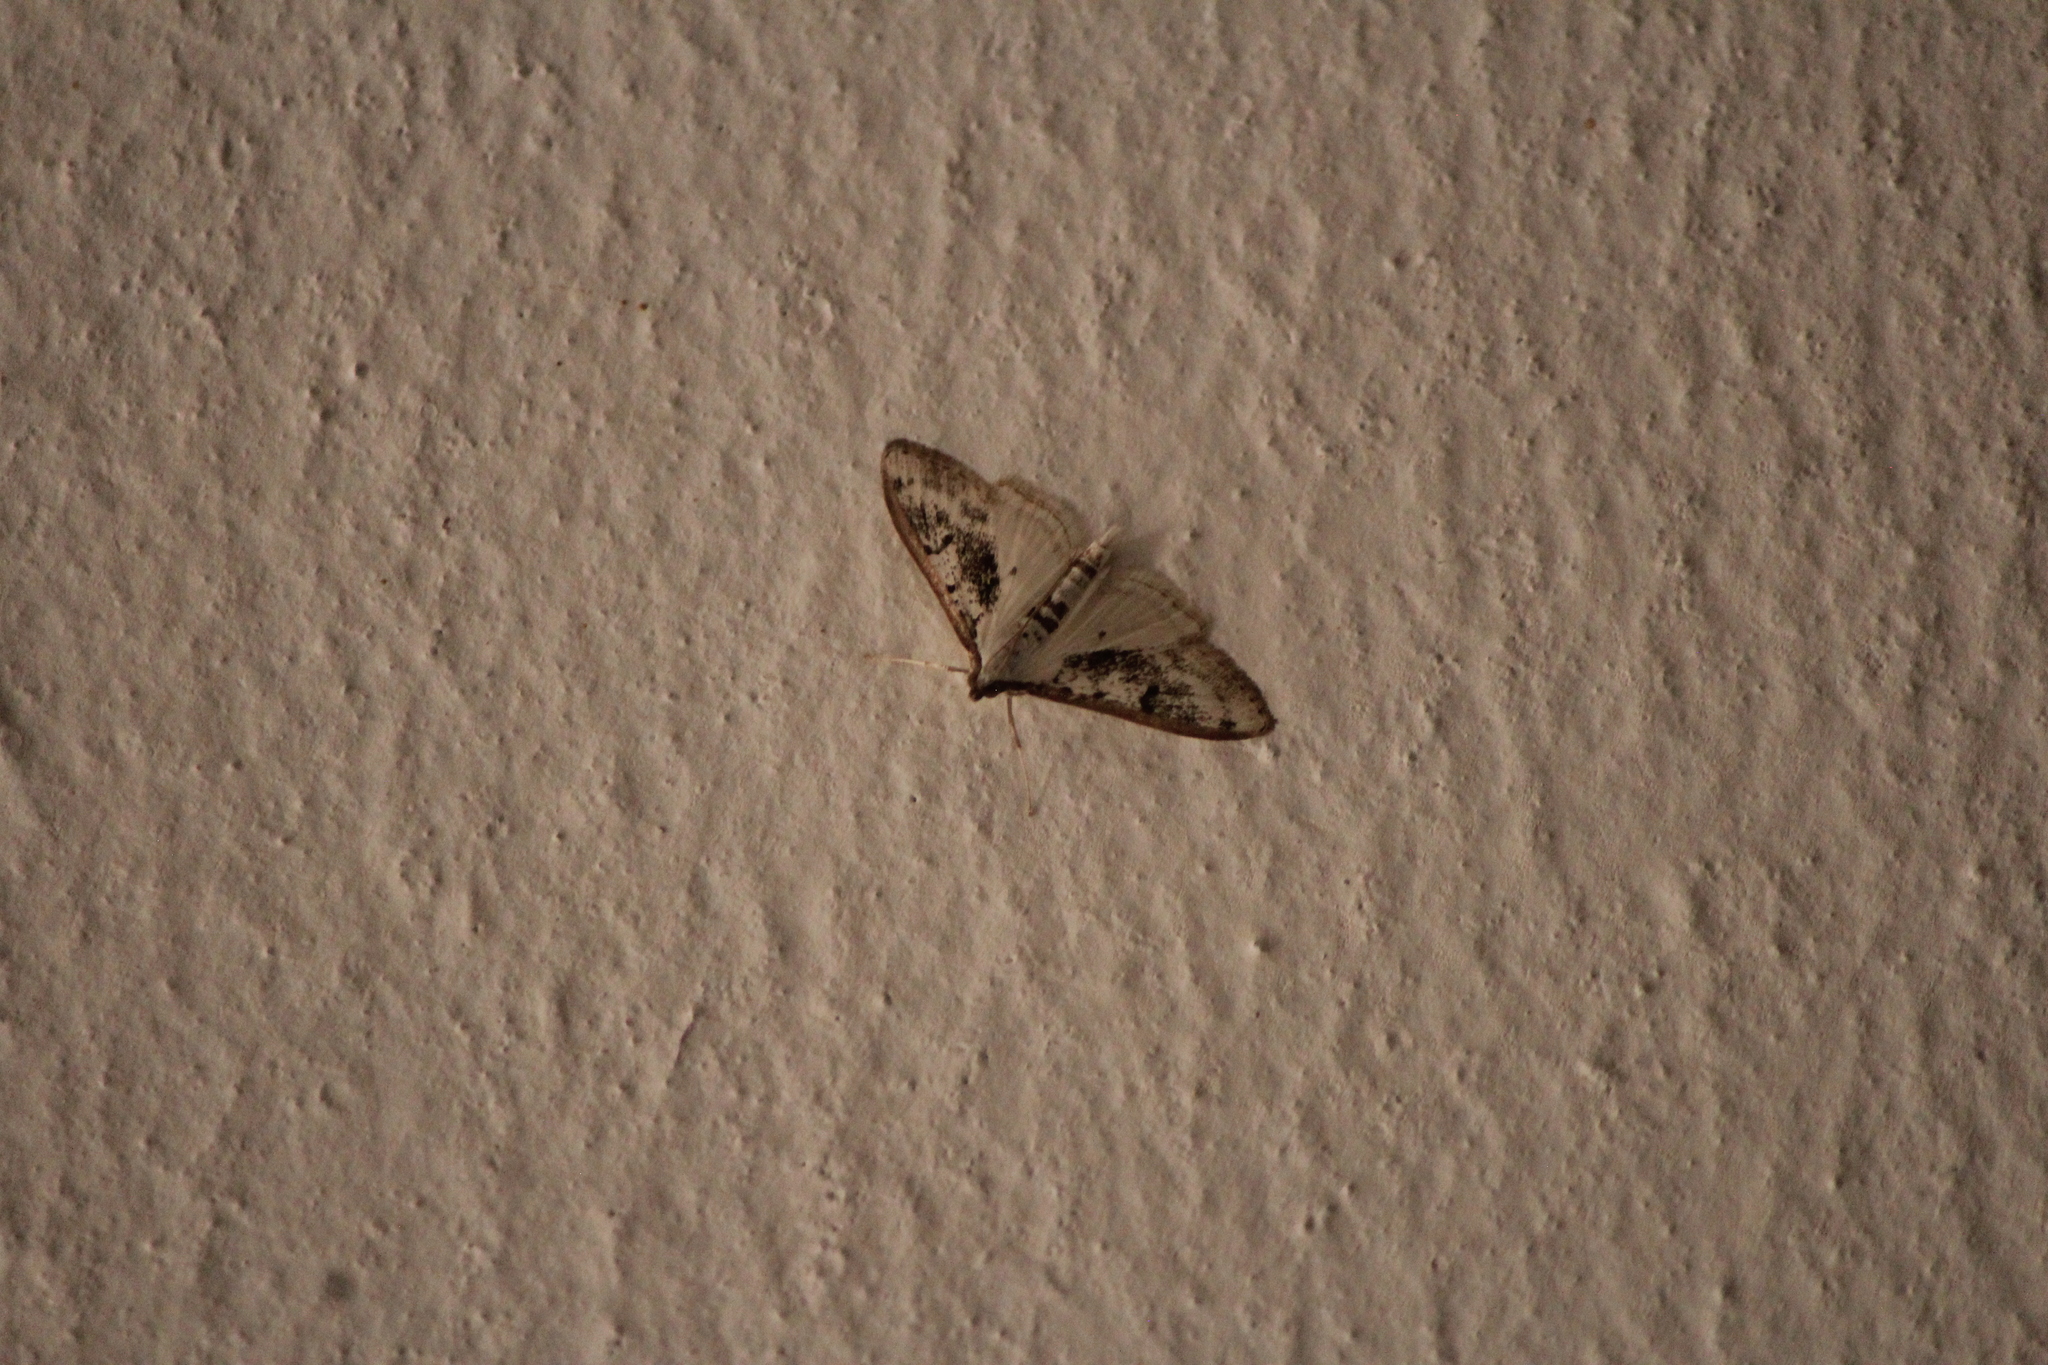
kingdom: Animalia
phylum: Arthropoda
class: Insecta
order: Lepidoptera
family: Crambidae
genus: Palpita
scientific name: Palpita gracilalis
